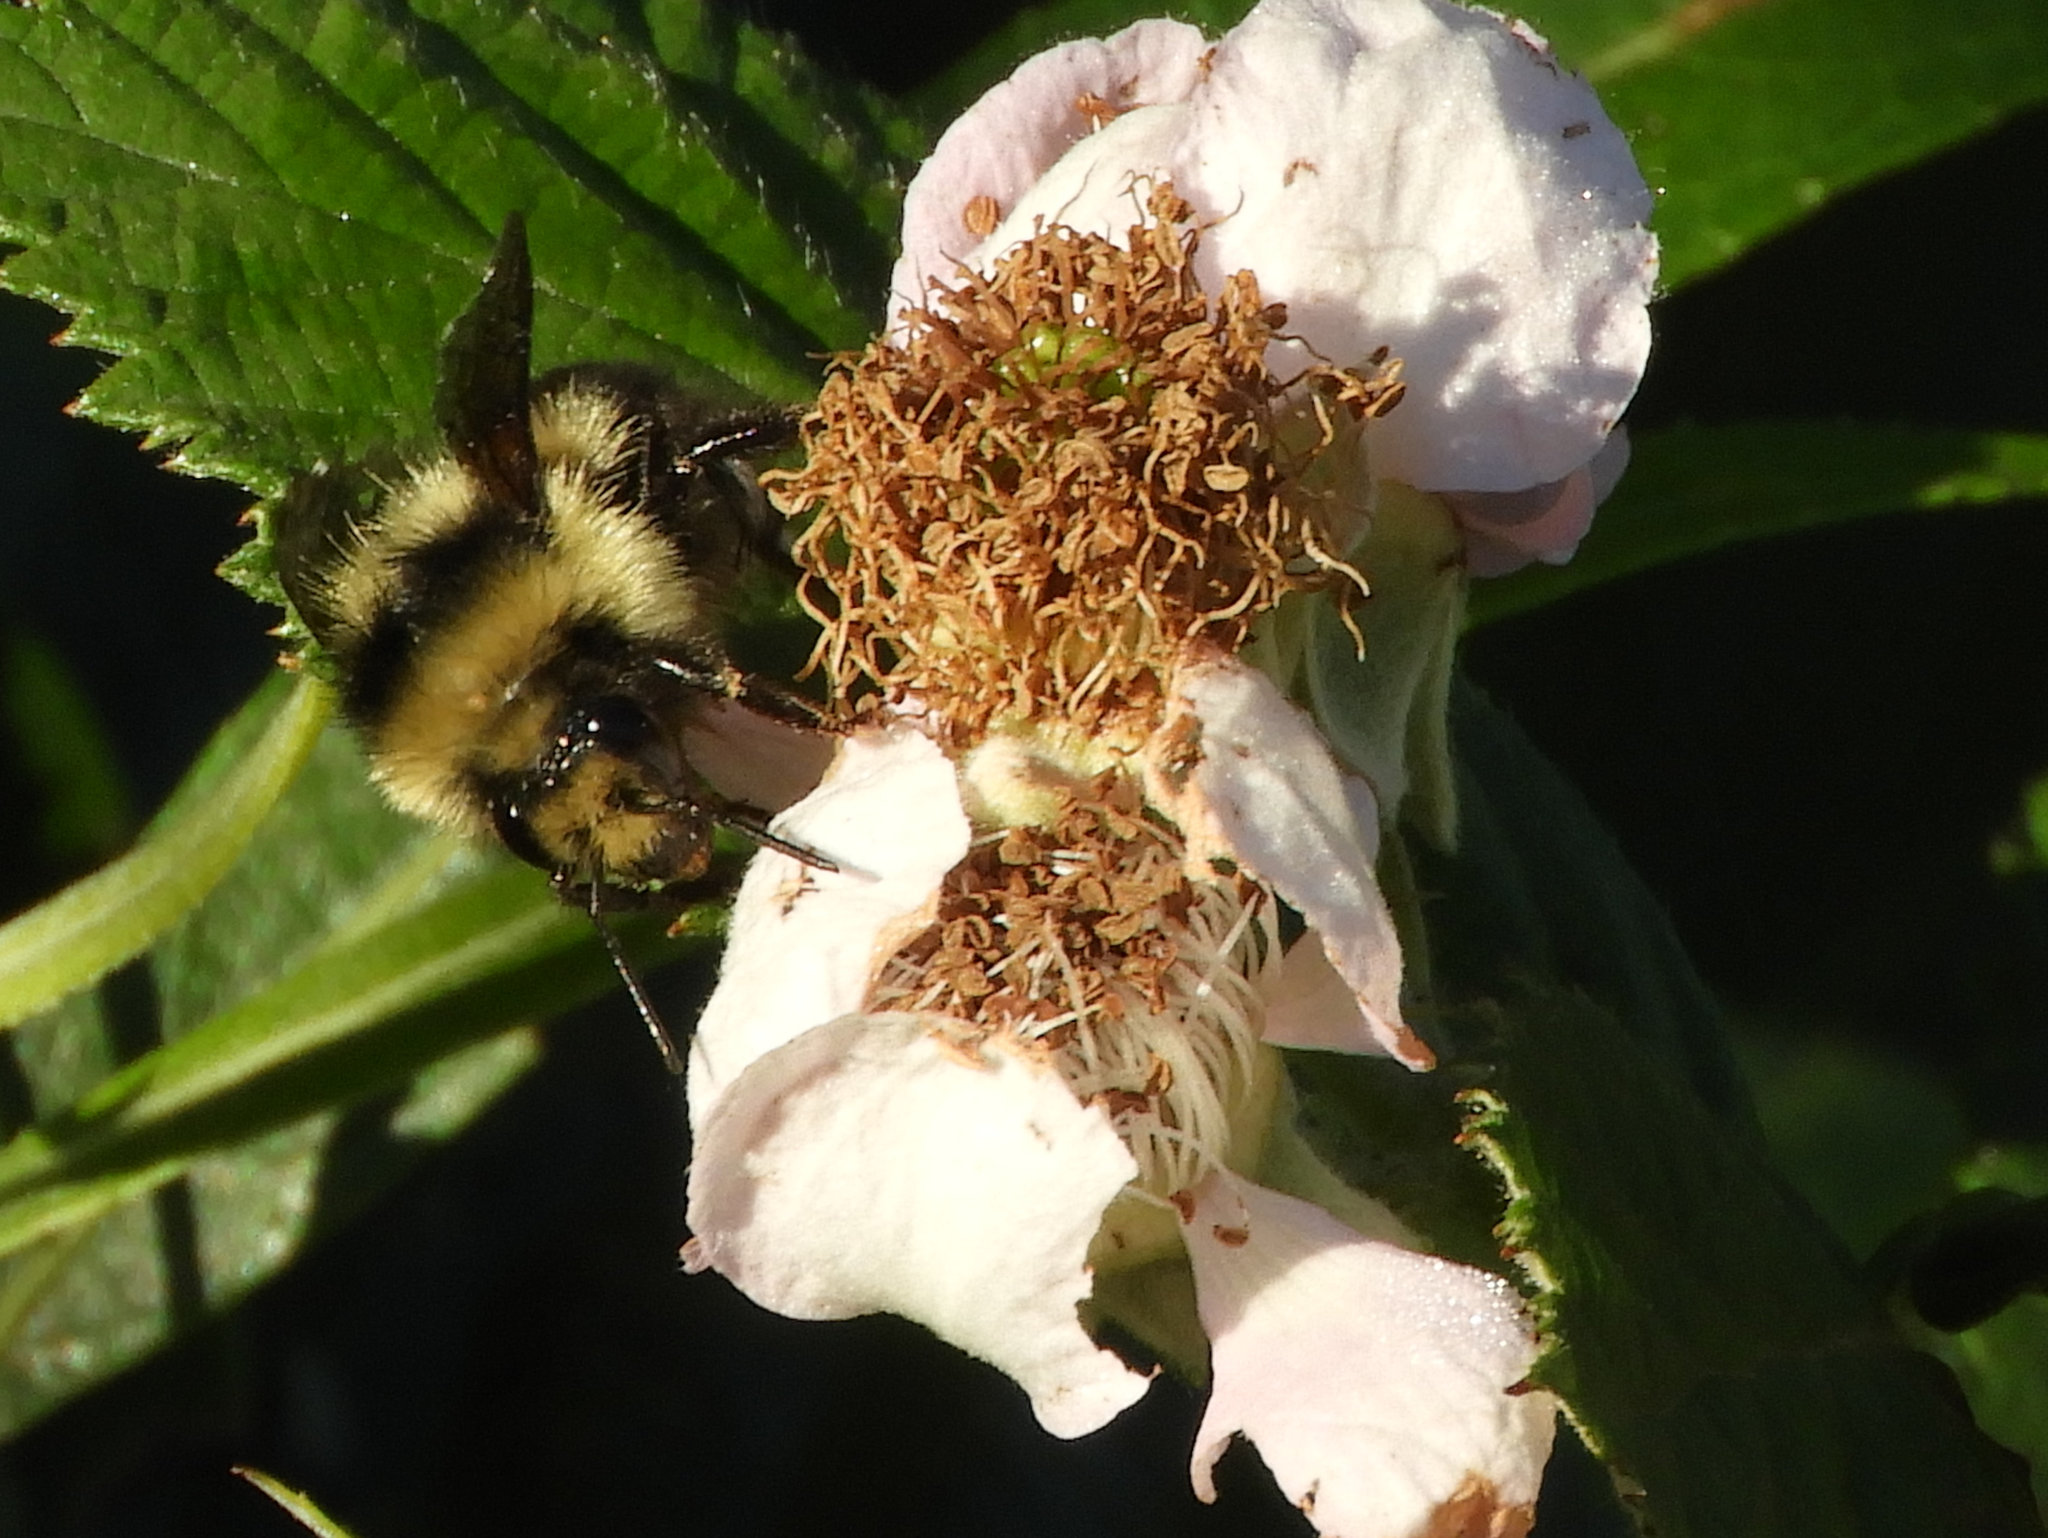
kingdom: Animalia
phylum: Arthropoda
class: Insecta
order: Hymenoptera
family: Apidae
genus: Bombus
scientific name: Bombus melanopygus
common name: Black tail bumble bee
